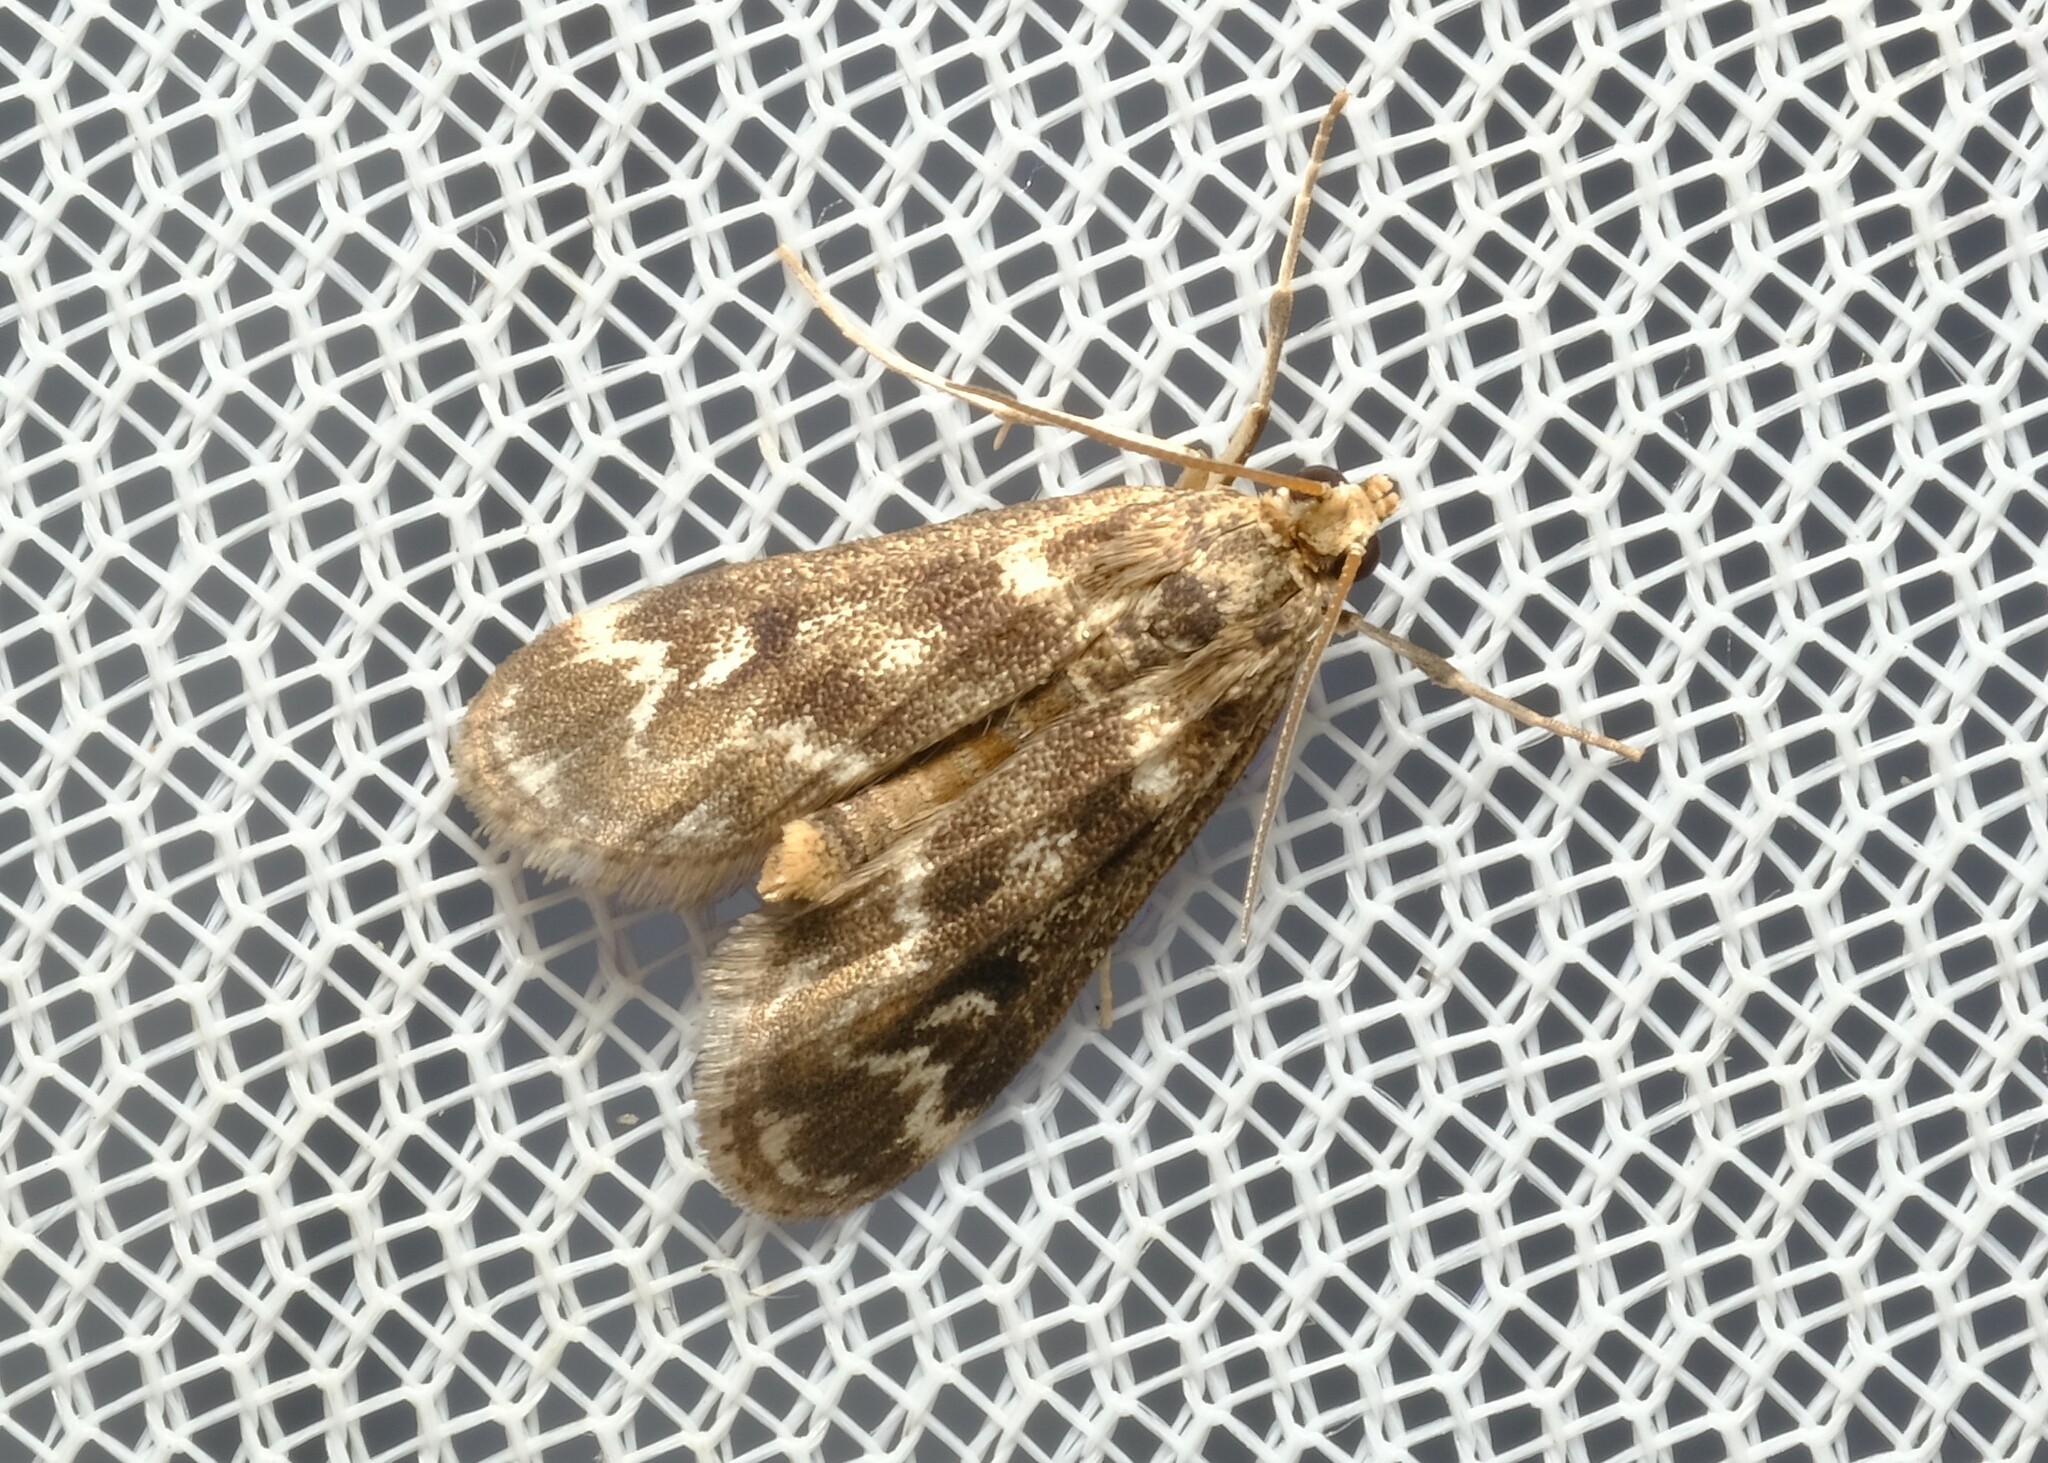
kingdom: Animalia
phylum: Arthropoda
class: Insecta
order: Lepidoptera
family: Crambidae
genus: Hygraula
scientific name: Hygraula nitens
